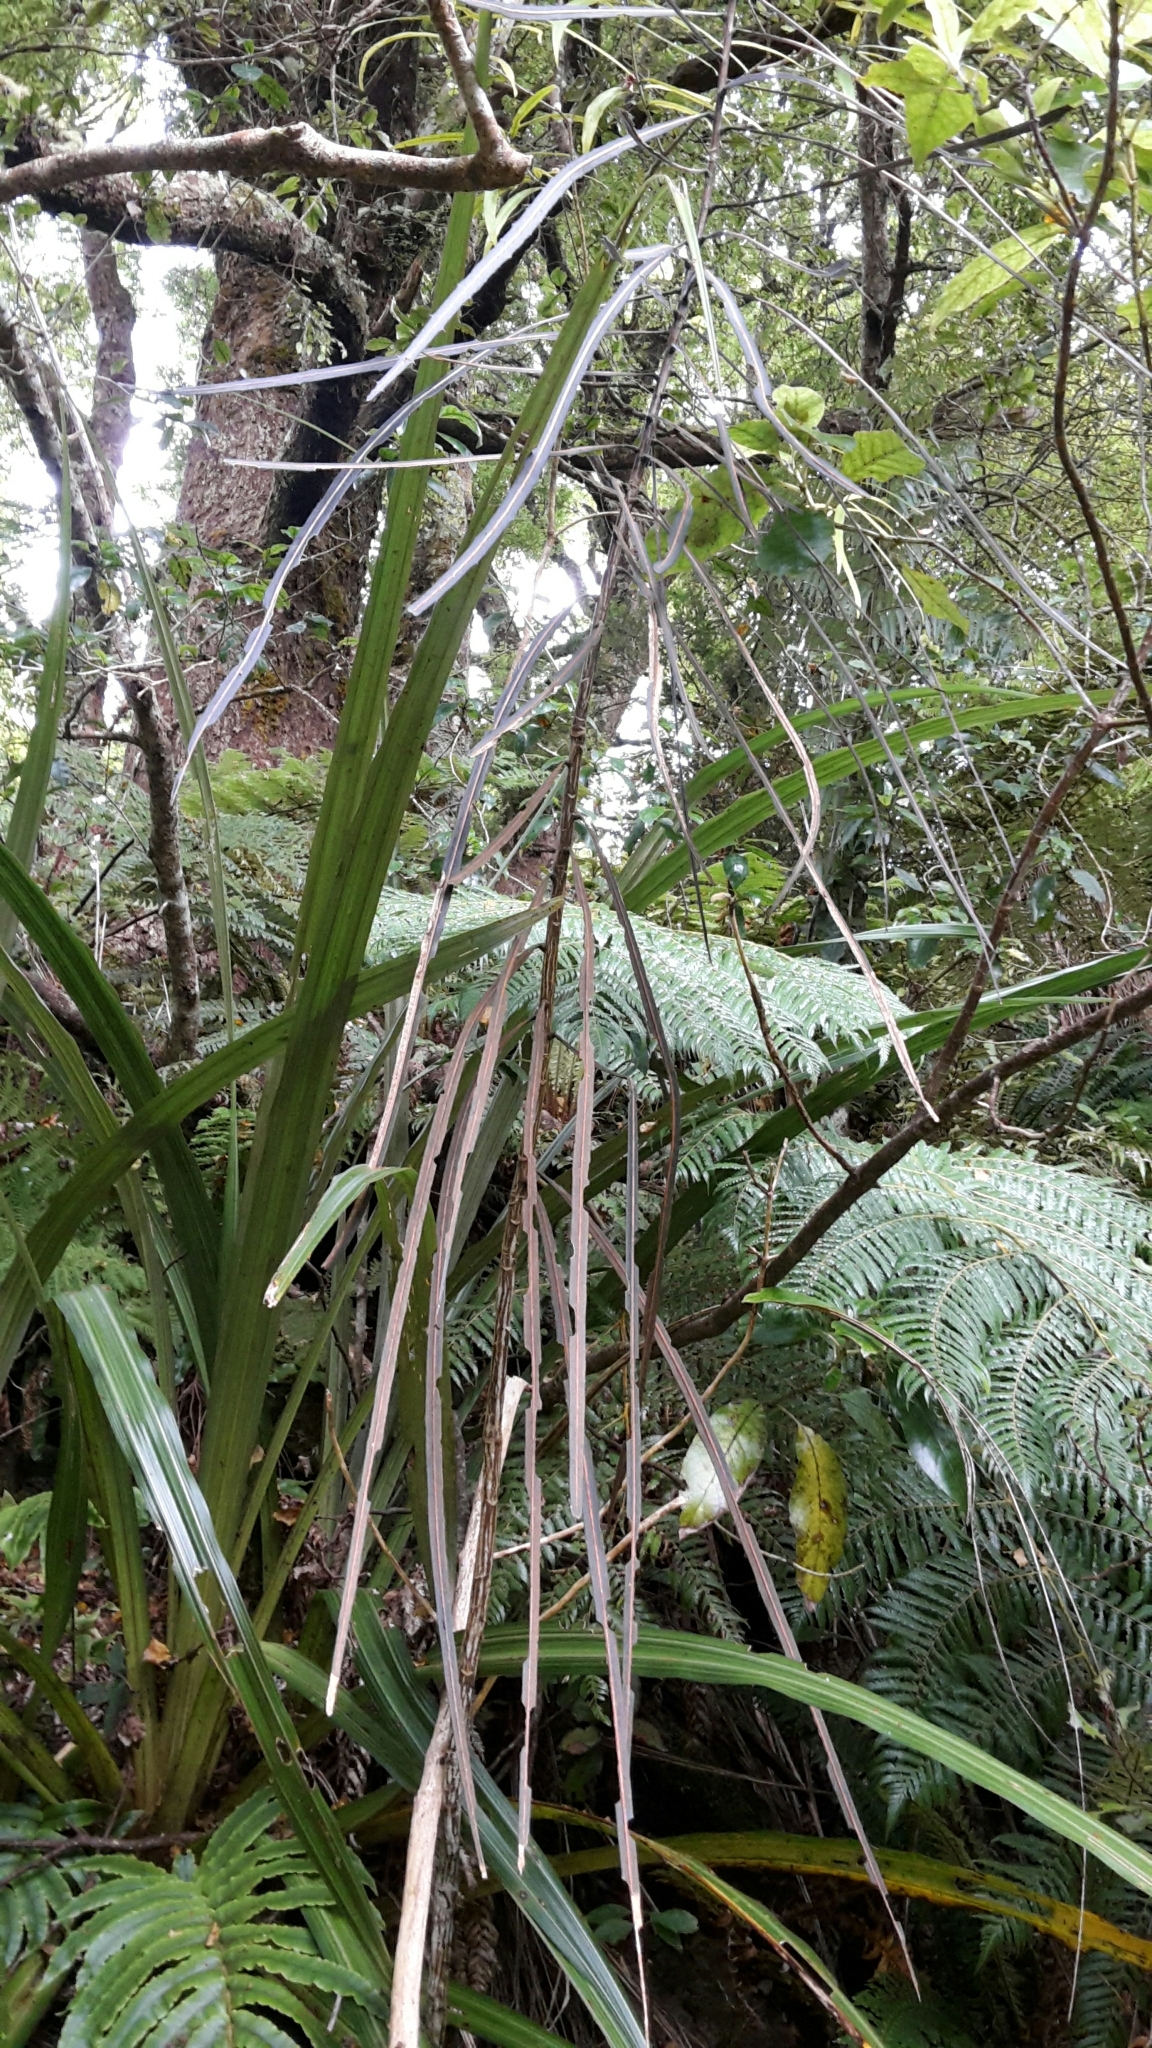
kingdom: Plantae
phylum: Tracheophyta
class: Magnoliopsida
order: Apiales
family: Araliaceae
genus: Pseudopanax
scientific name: Pseudopanax crassifolius
